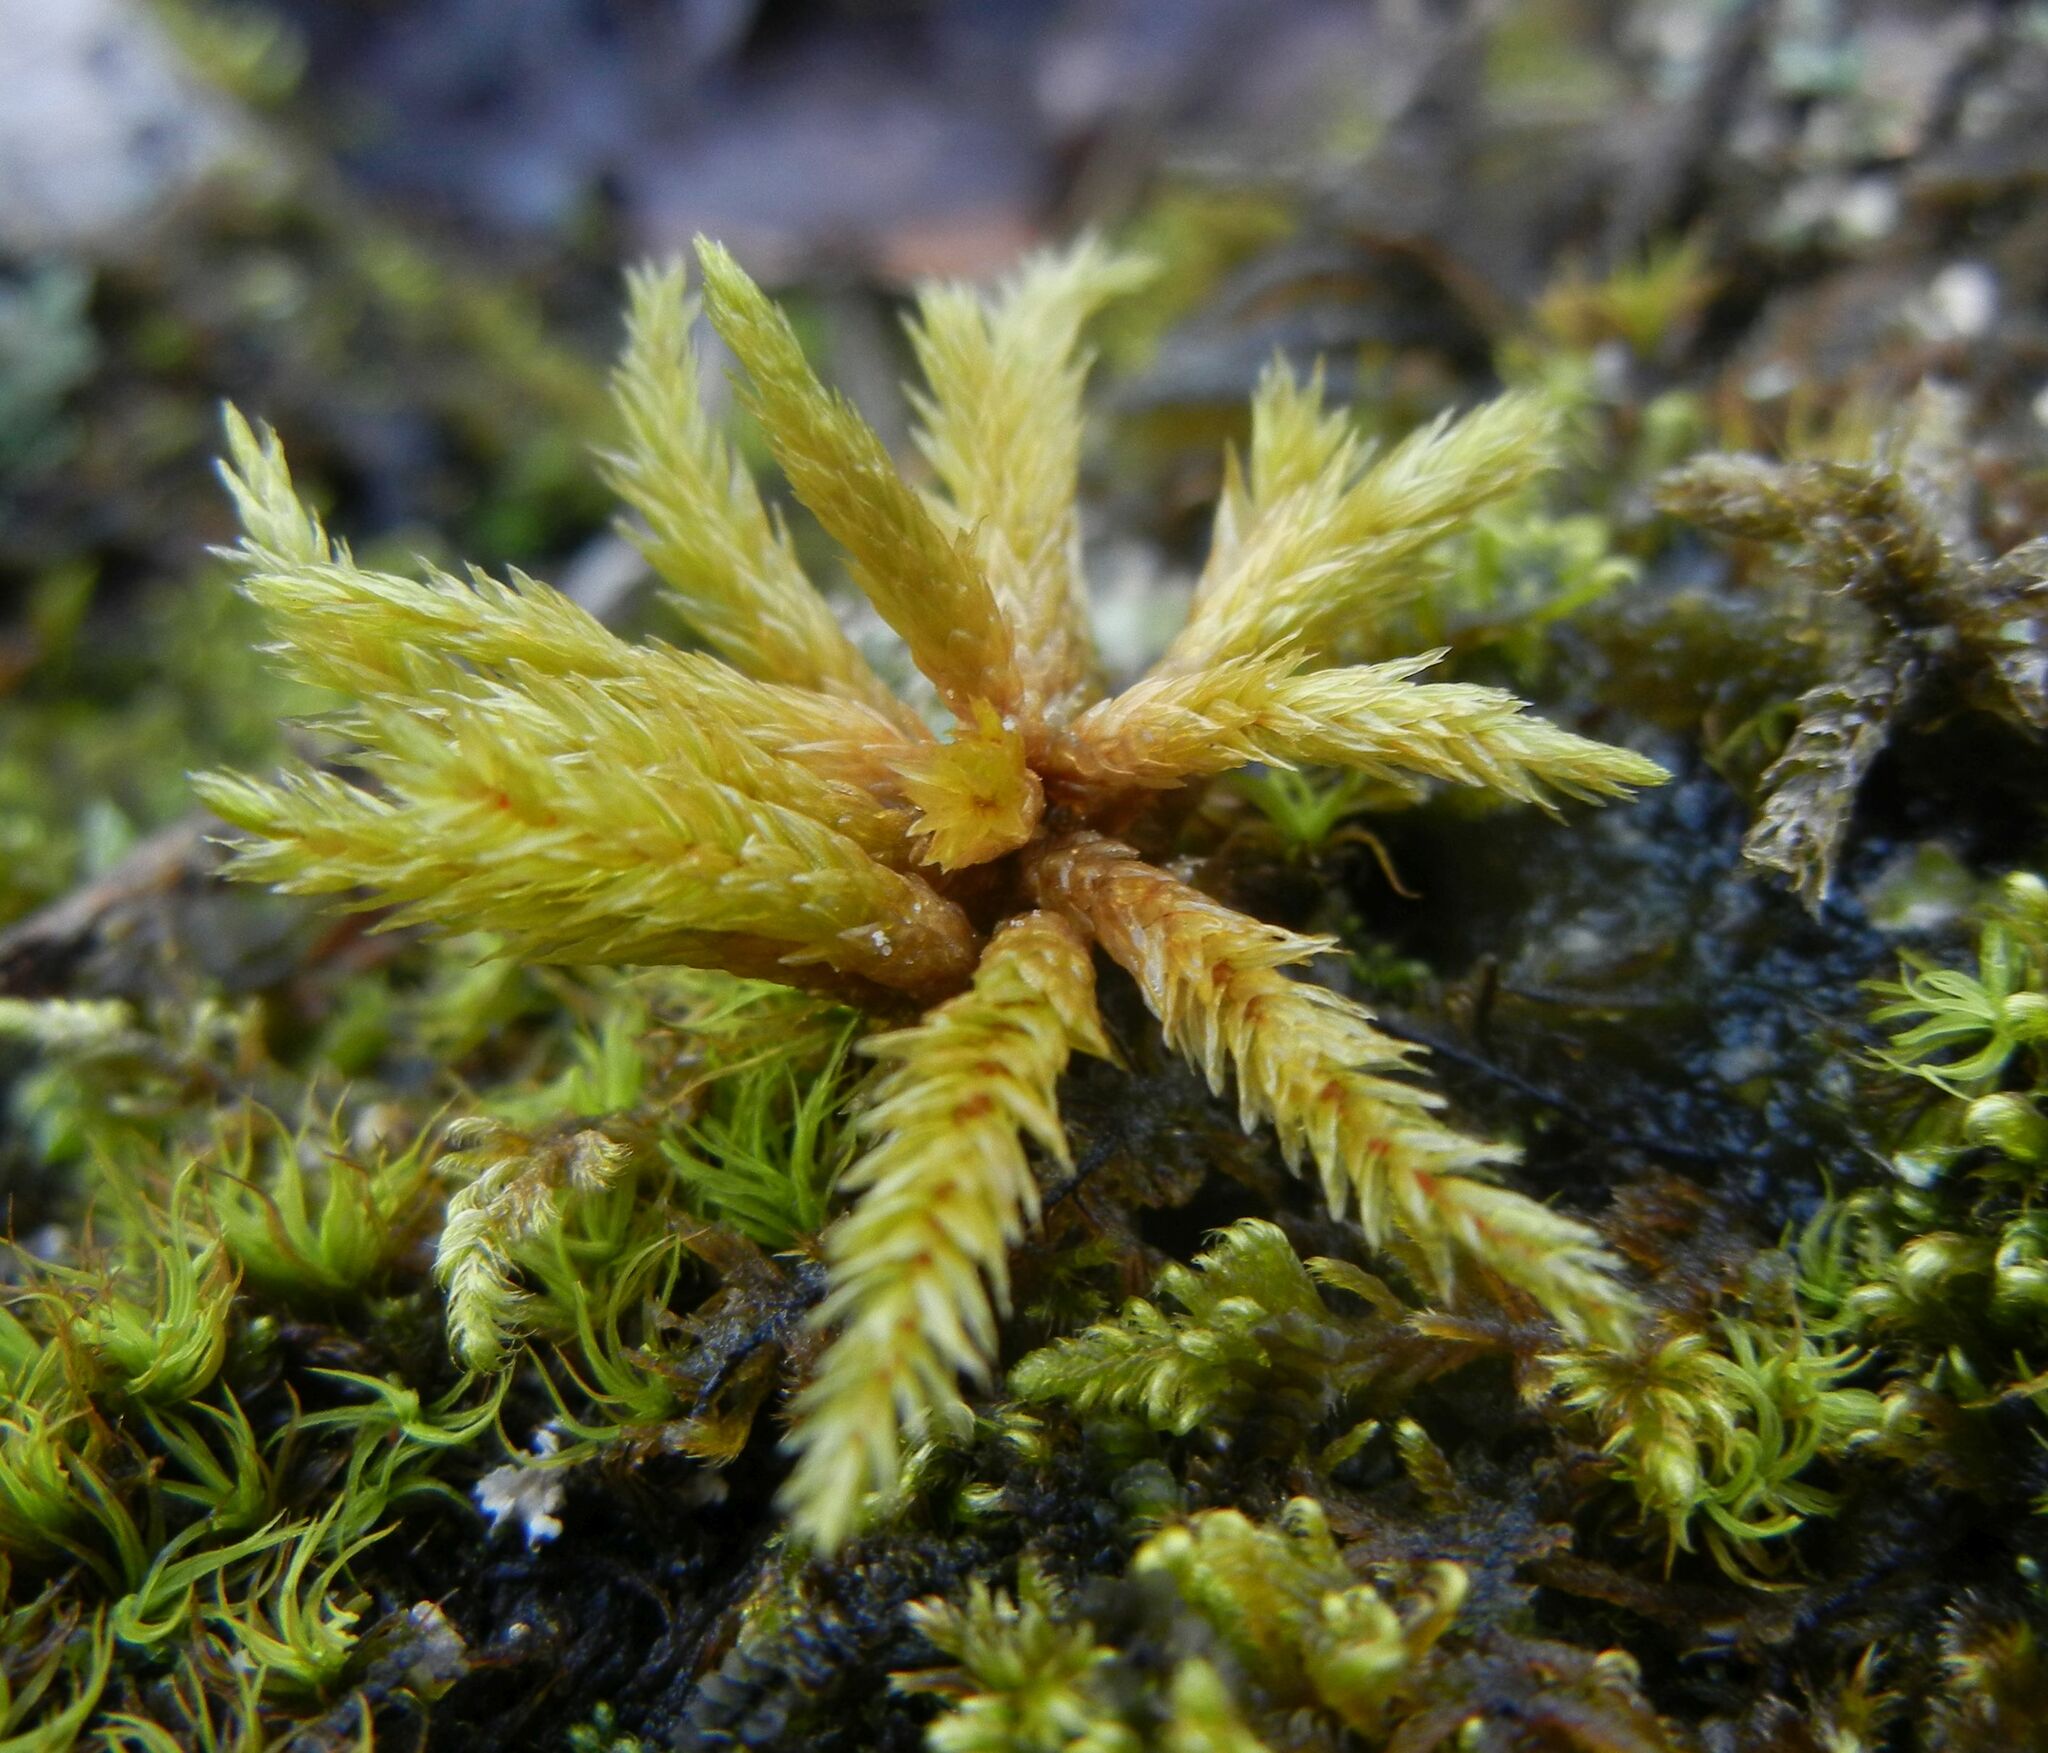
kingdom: Plantae
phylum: Bryophyta
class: Bryopsida
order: Hypnales
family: Climaciaceae
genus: Climacium
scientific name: Climacium dendroides
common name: Northern tree moss
